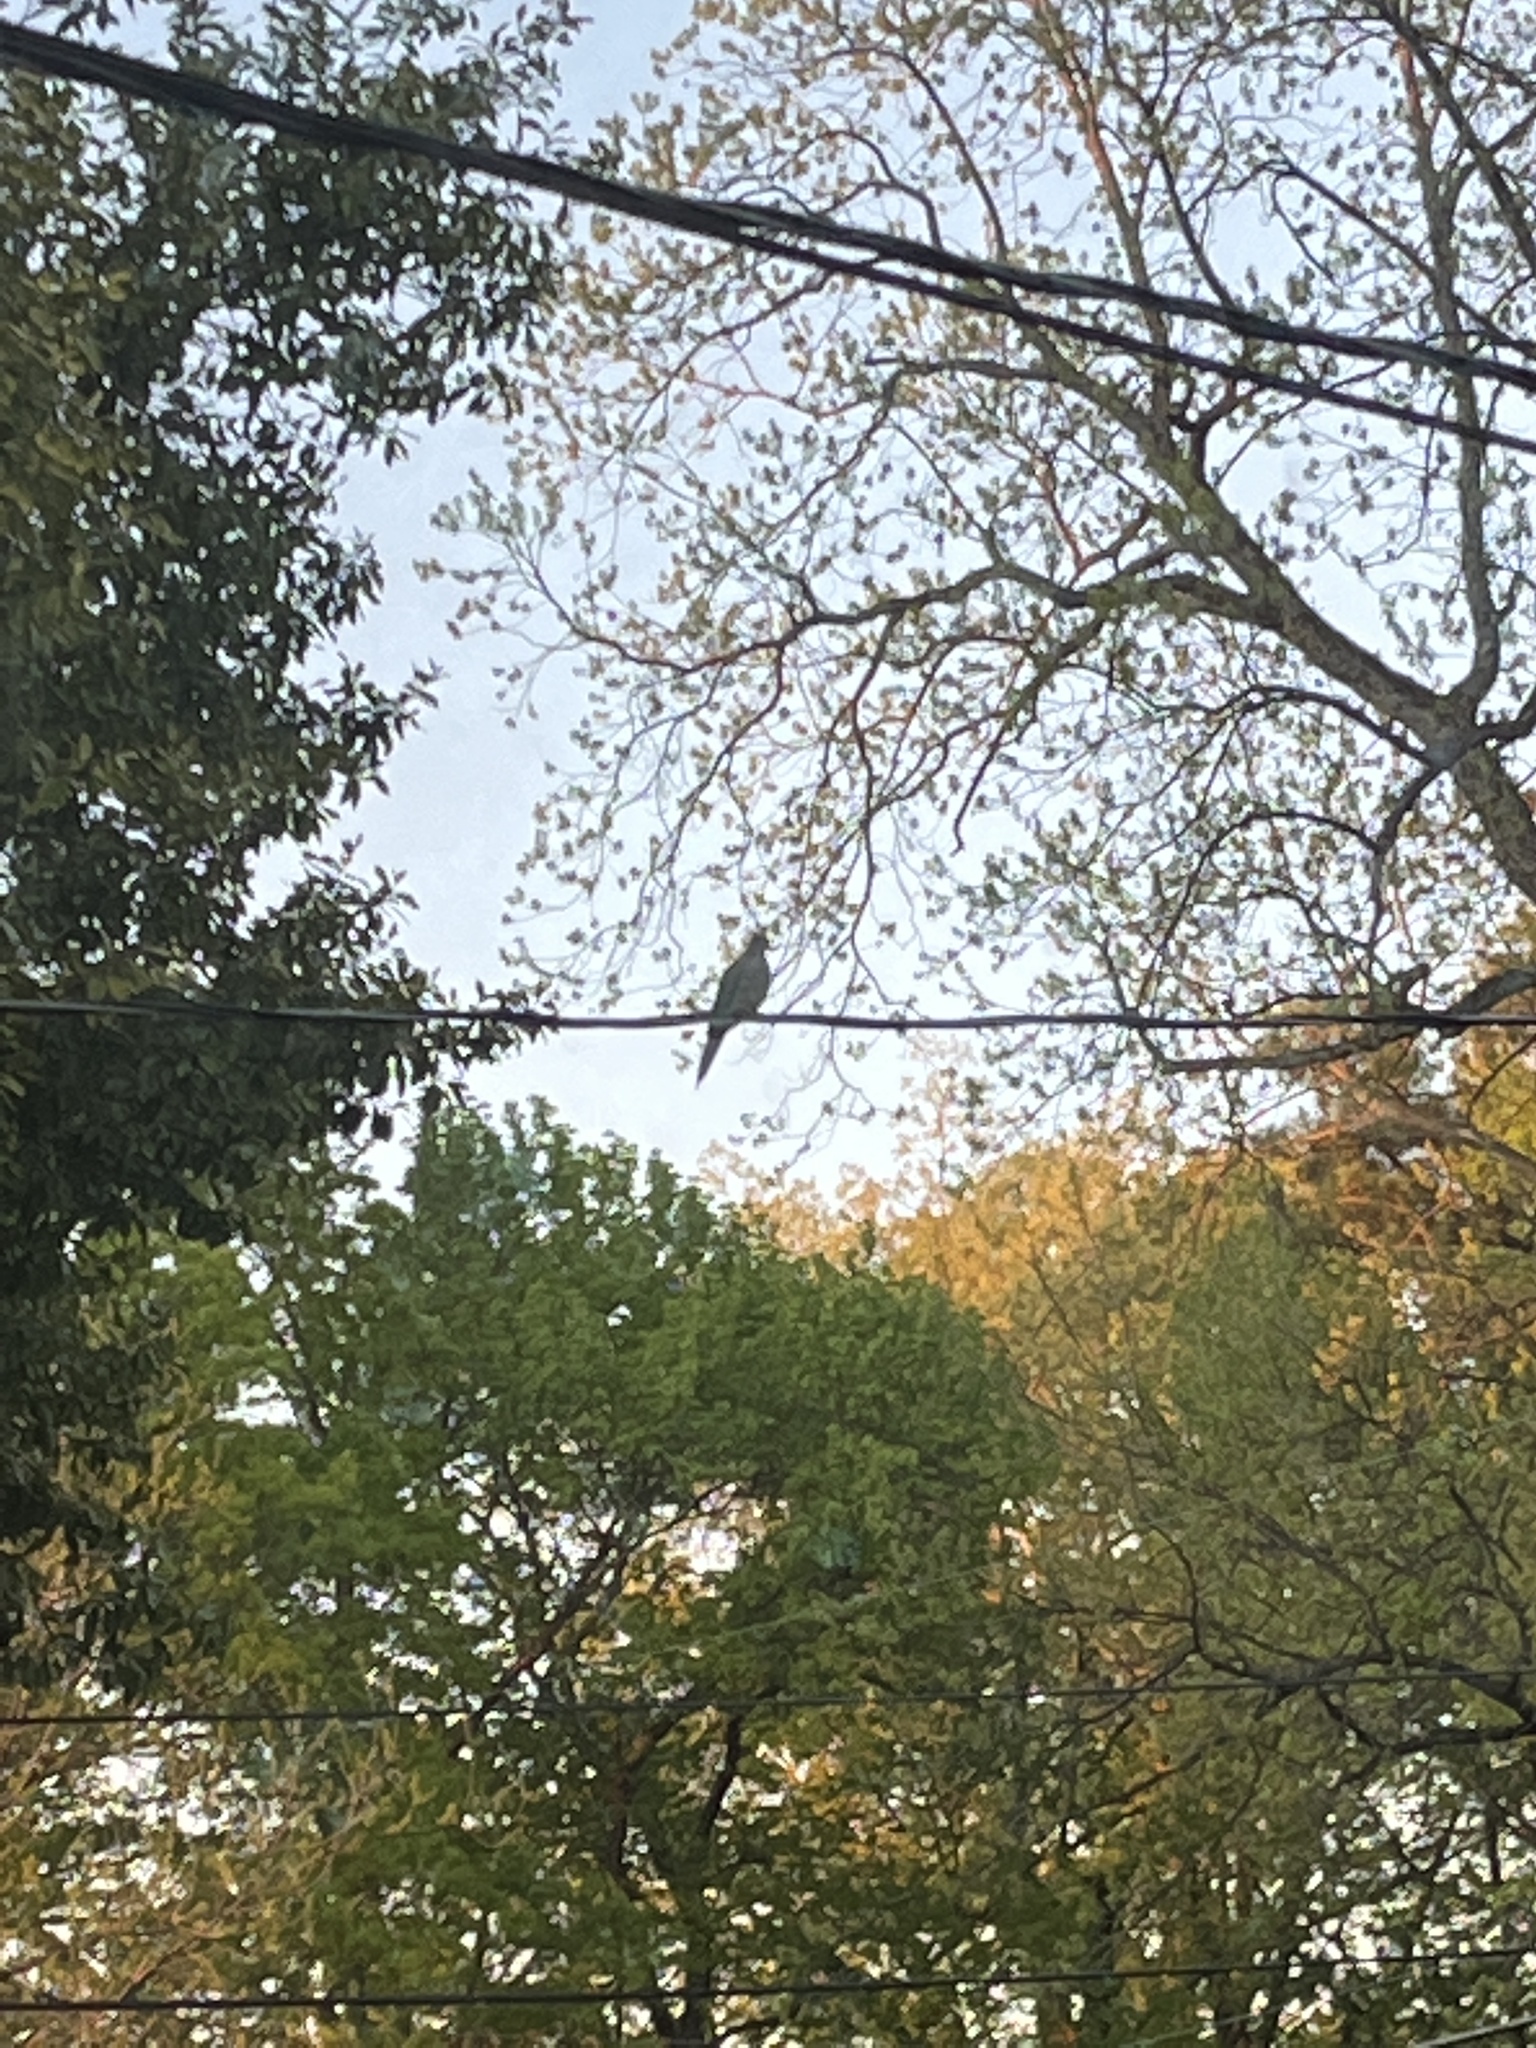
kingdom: Animalia
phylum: Chordata
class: Aves
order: Columbiformes
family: Columbidae
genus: Zenaida
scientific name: Zenaida macroura
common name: Mourning dove
